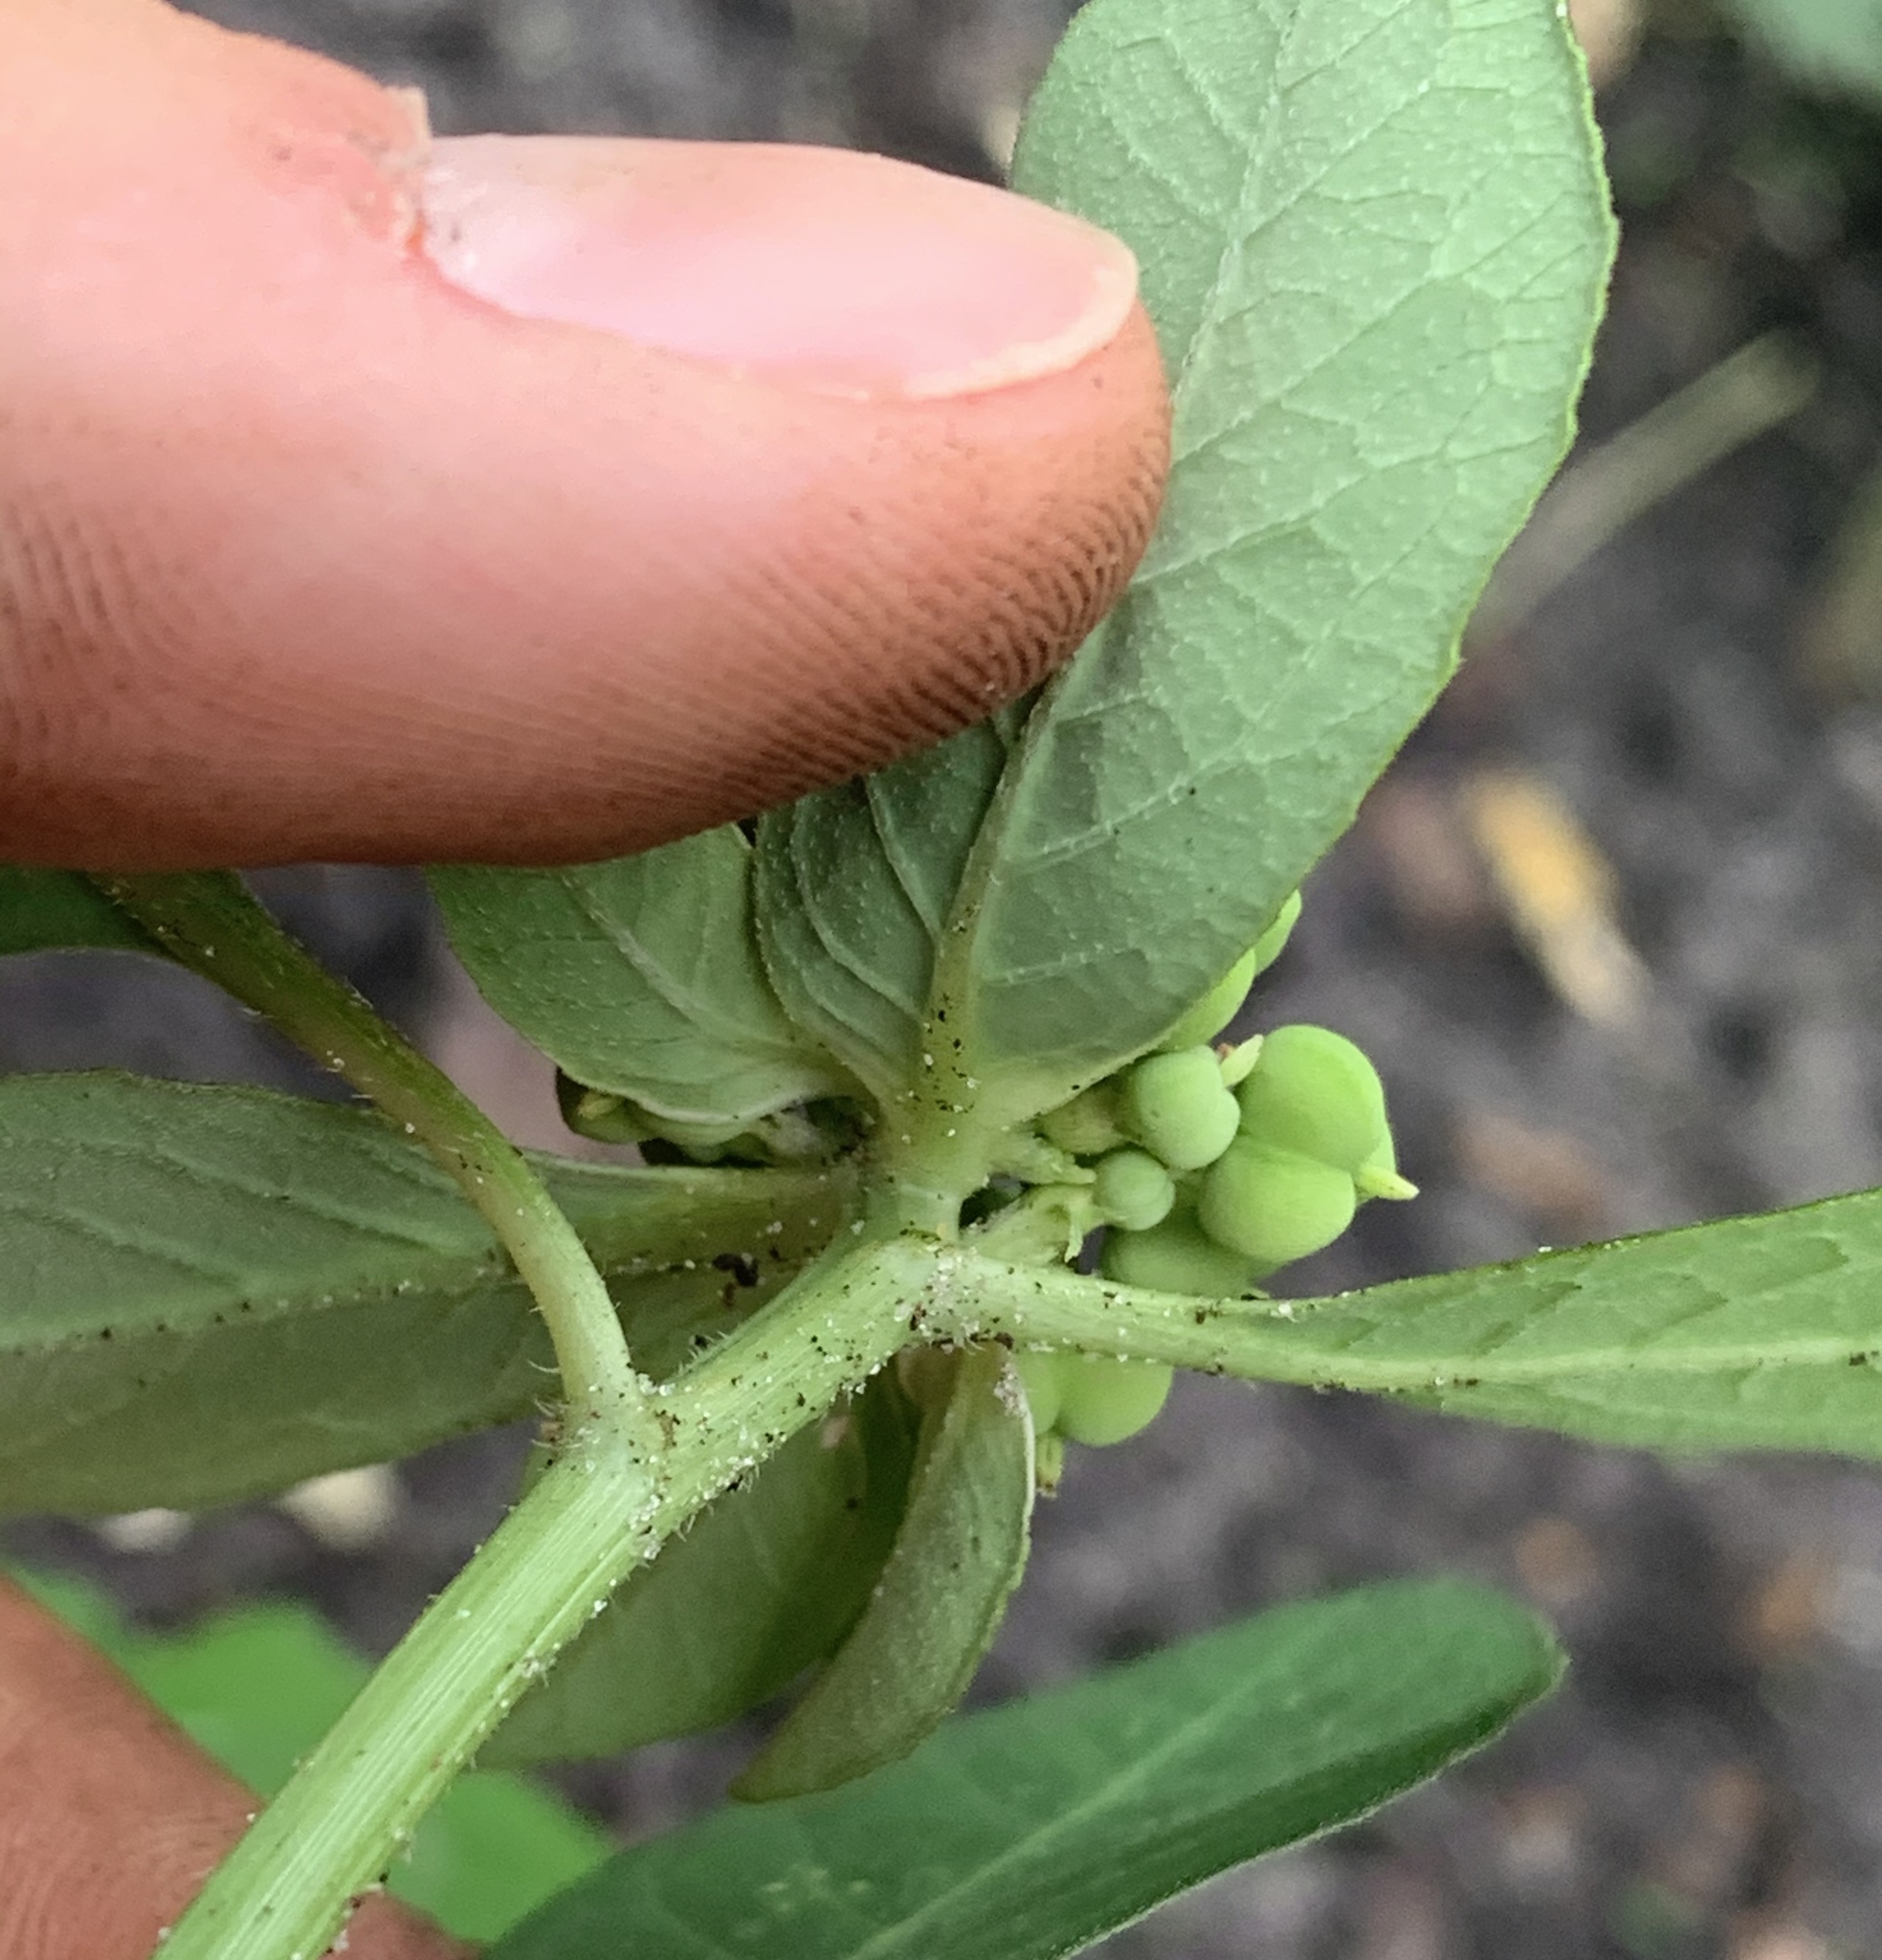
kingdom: Plantae
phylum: Tracheophyta
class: Magnoliopsida
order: Malpighiales
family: Euphorbiaceae
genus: Euphorbia
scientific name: Euphorbia heterophylla
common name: Mexican fireplant
